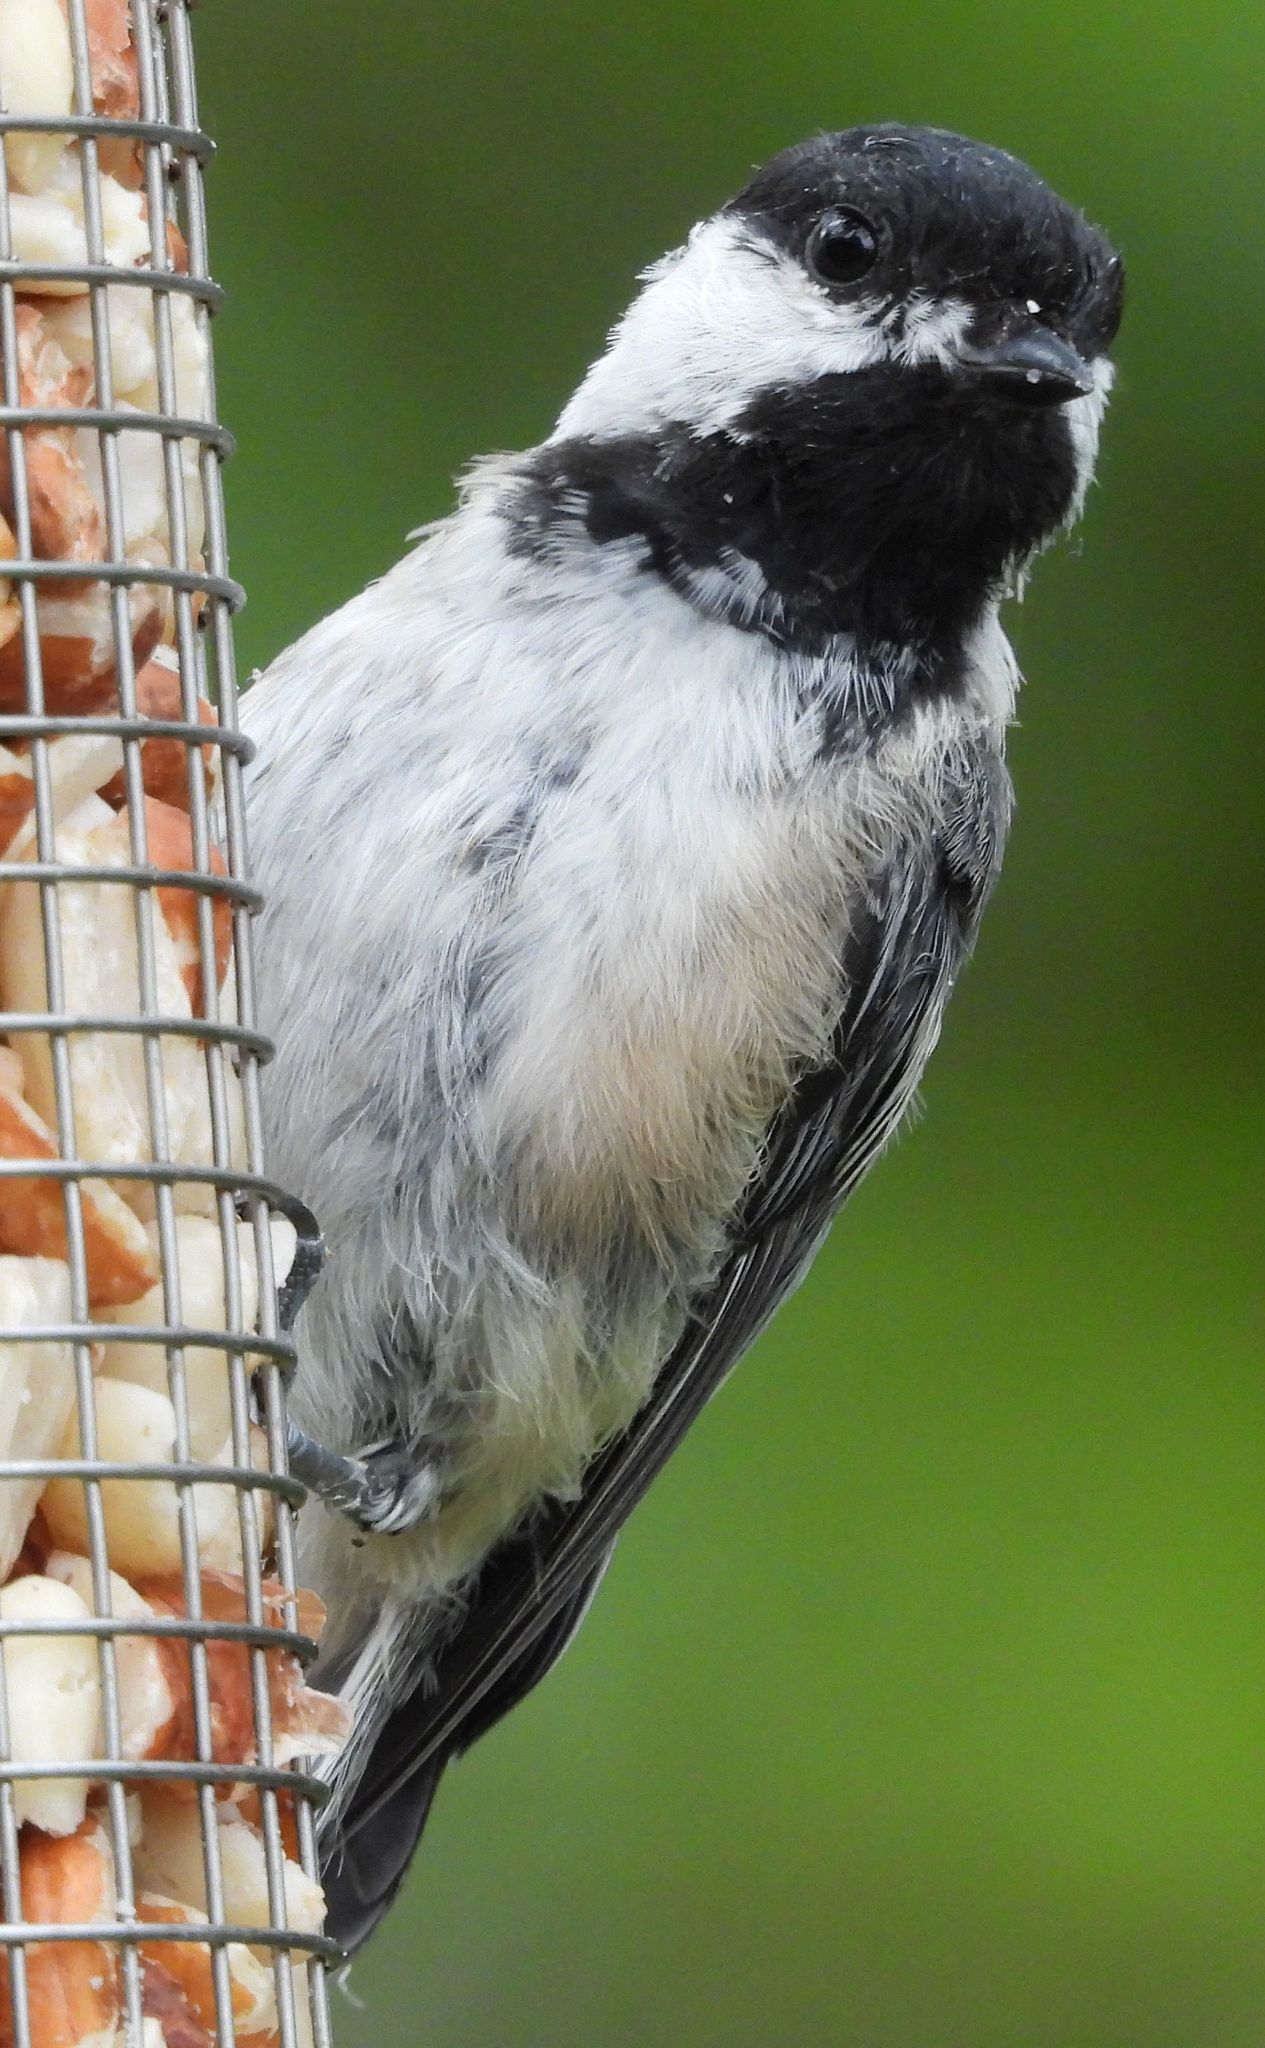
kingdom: Animalia
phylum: Chordata
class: Aves
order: Passeriformes
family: Paridae
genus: Poecile
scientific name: Poecile atricapillus
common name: Black-capped chickadee
